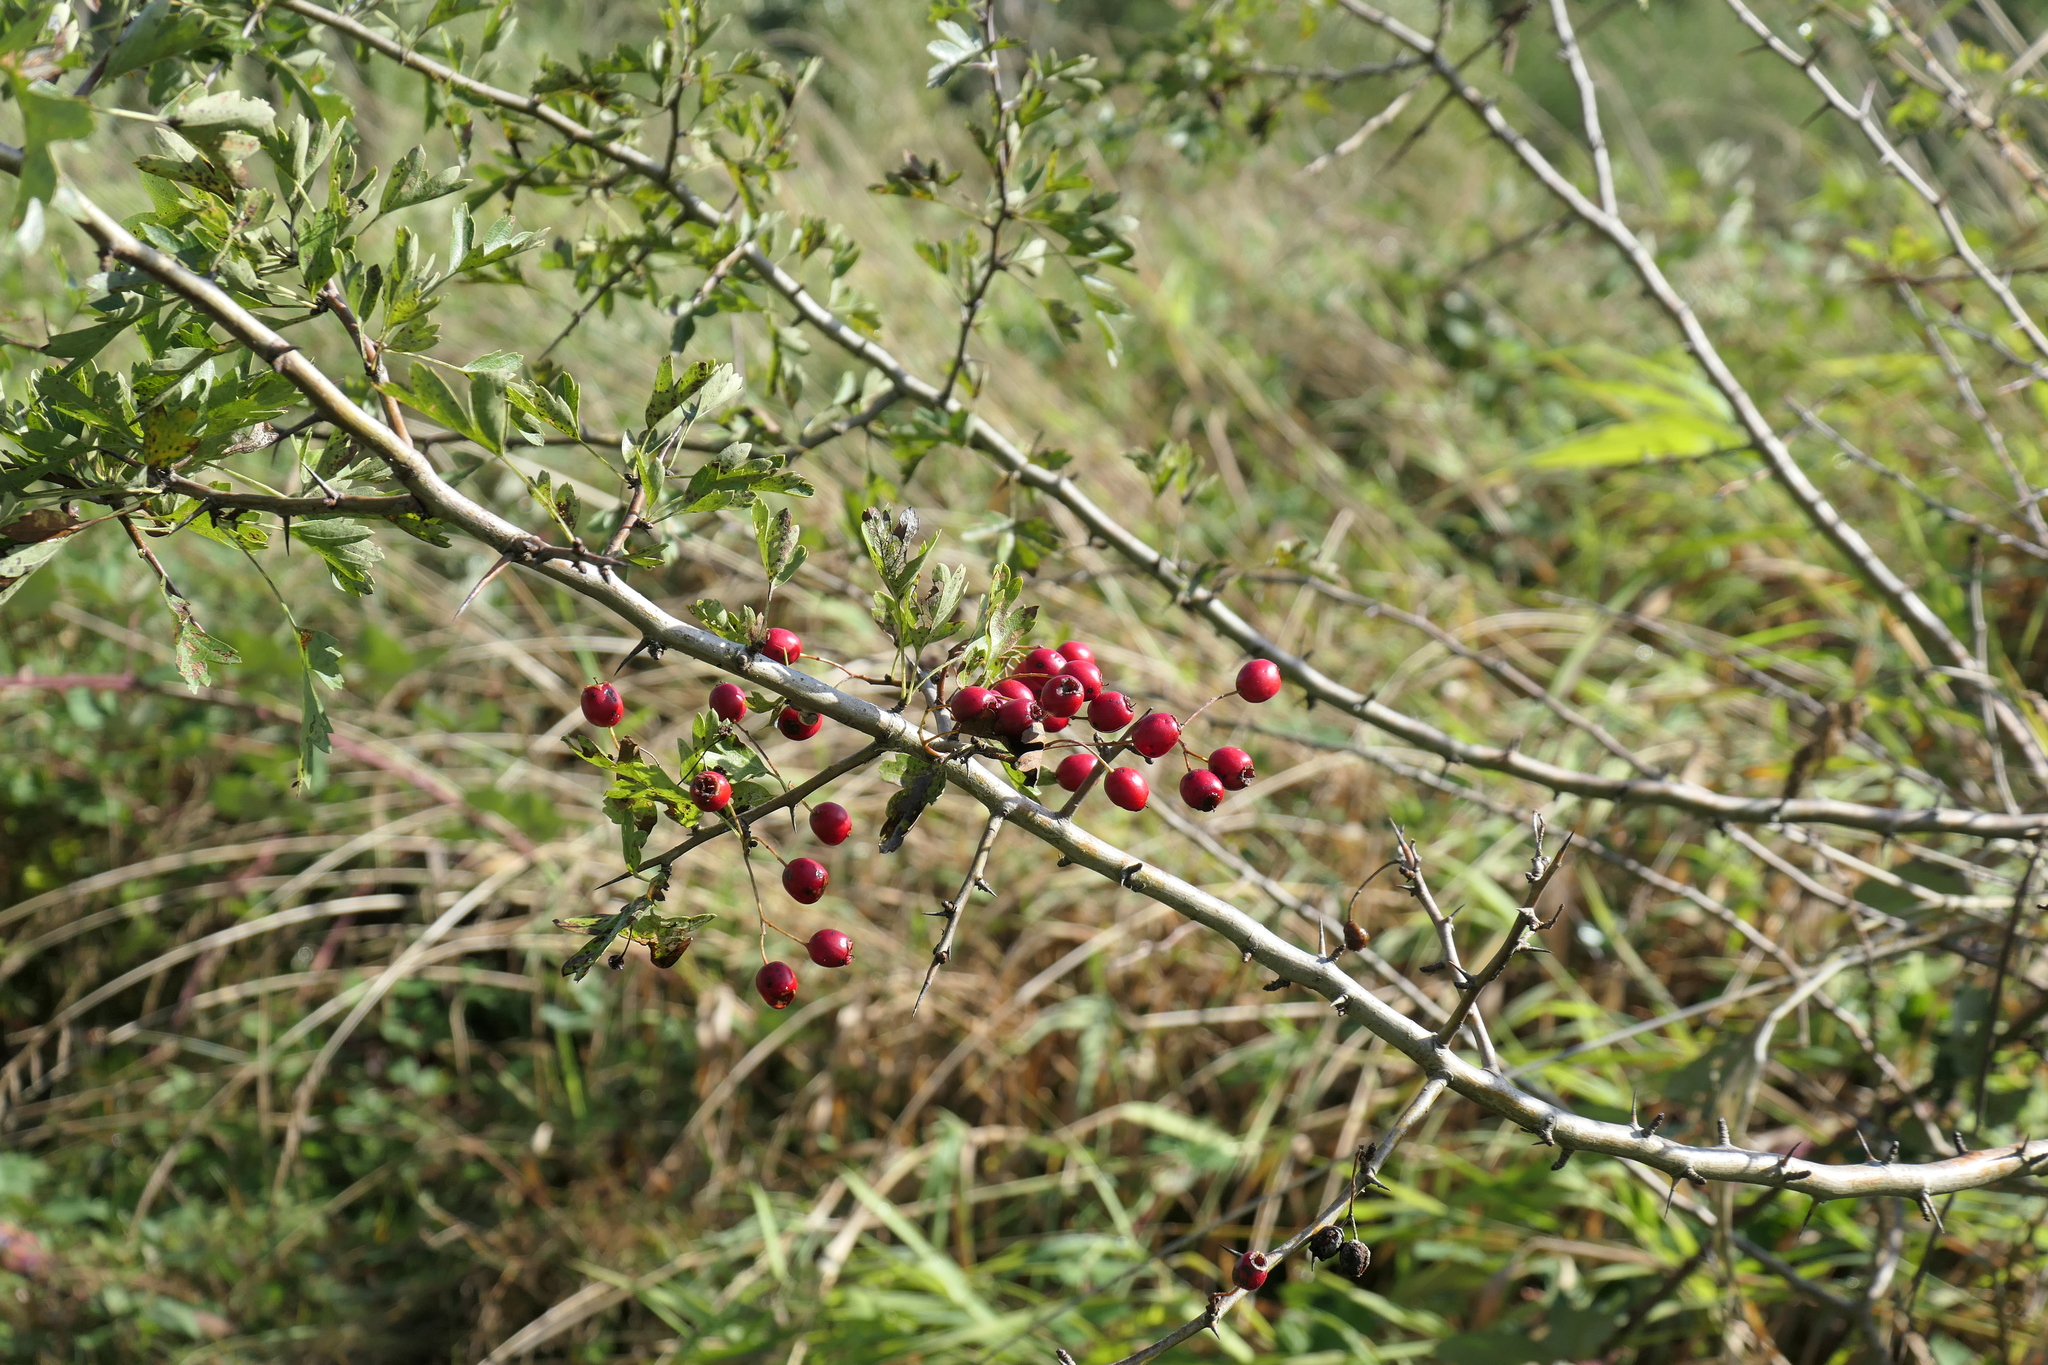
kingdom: Plantae
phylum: Tracheophyta
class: Magnoliopsida
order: Rosales
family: Rosaceae
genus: Crataegus
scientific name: Crataegus monogyna
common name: Hawthorn
